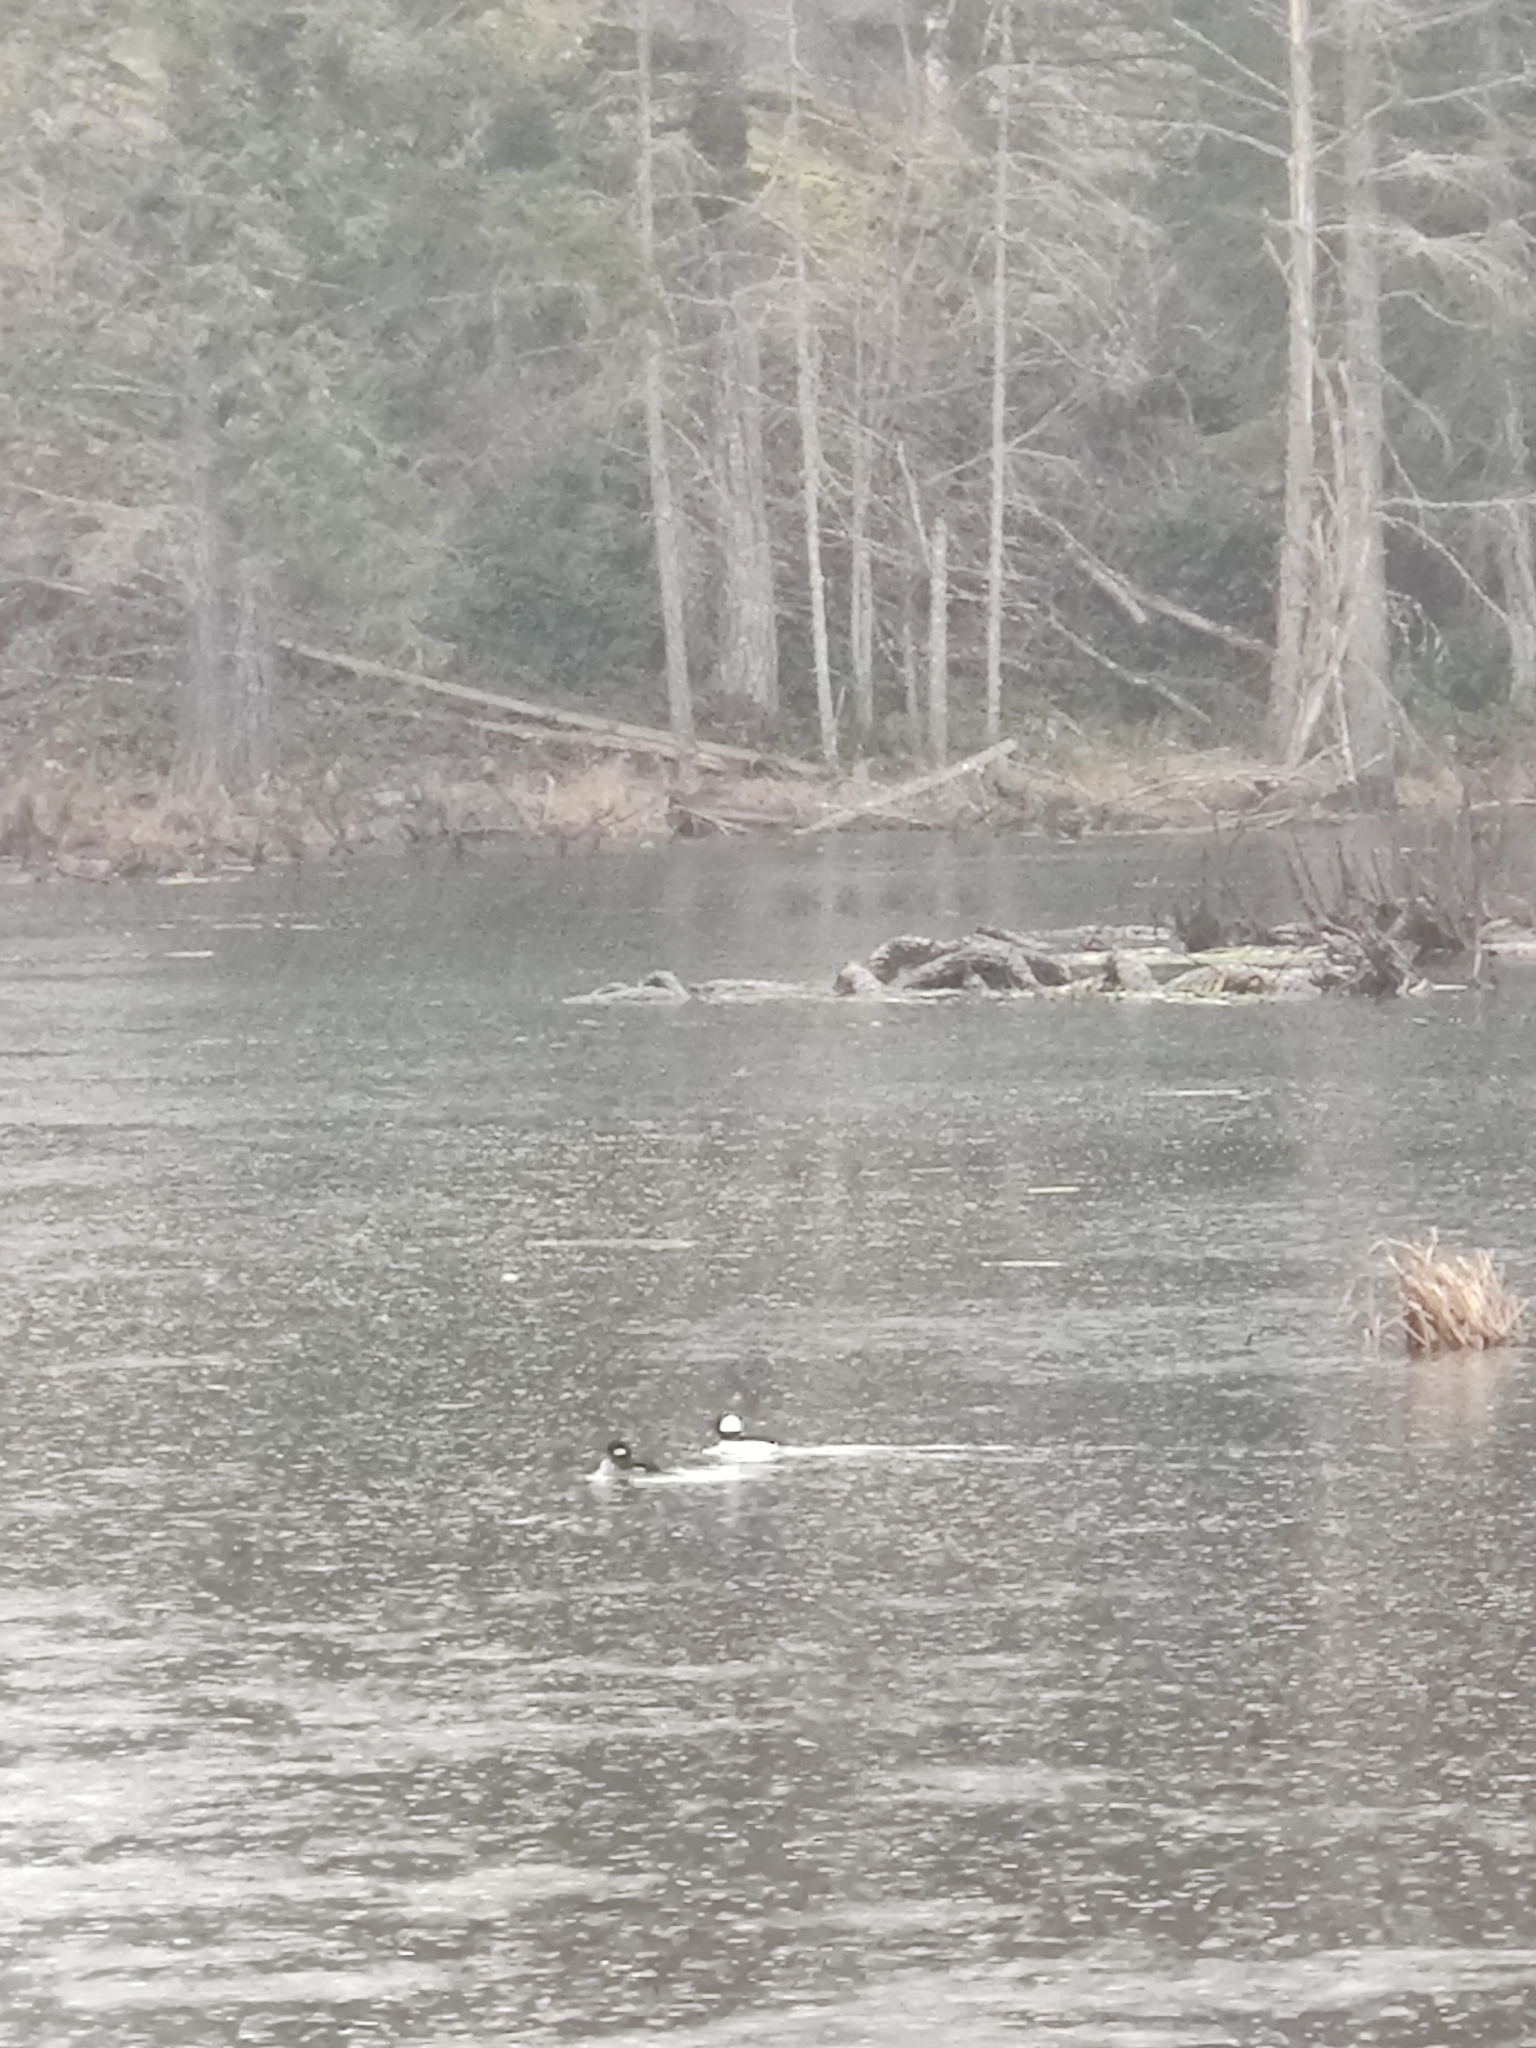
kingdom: Animalia
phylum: Chordata
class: Aves
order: Anseriformes
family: Anatidae
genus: Bucephala
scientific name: Bucephala albeola
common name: Bufflehead
